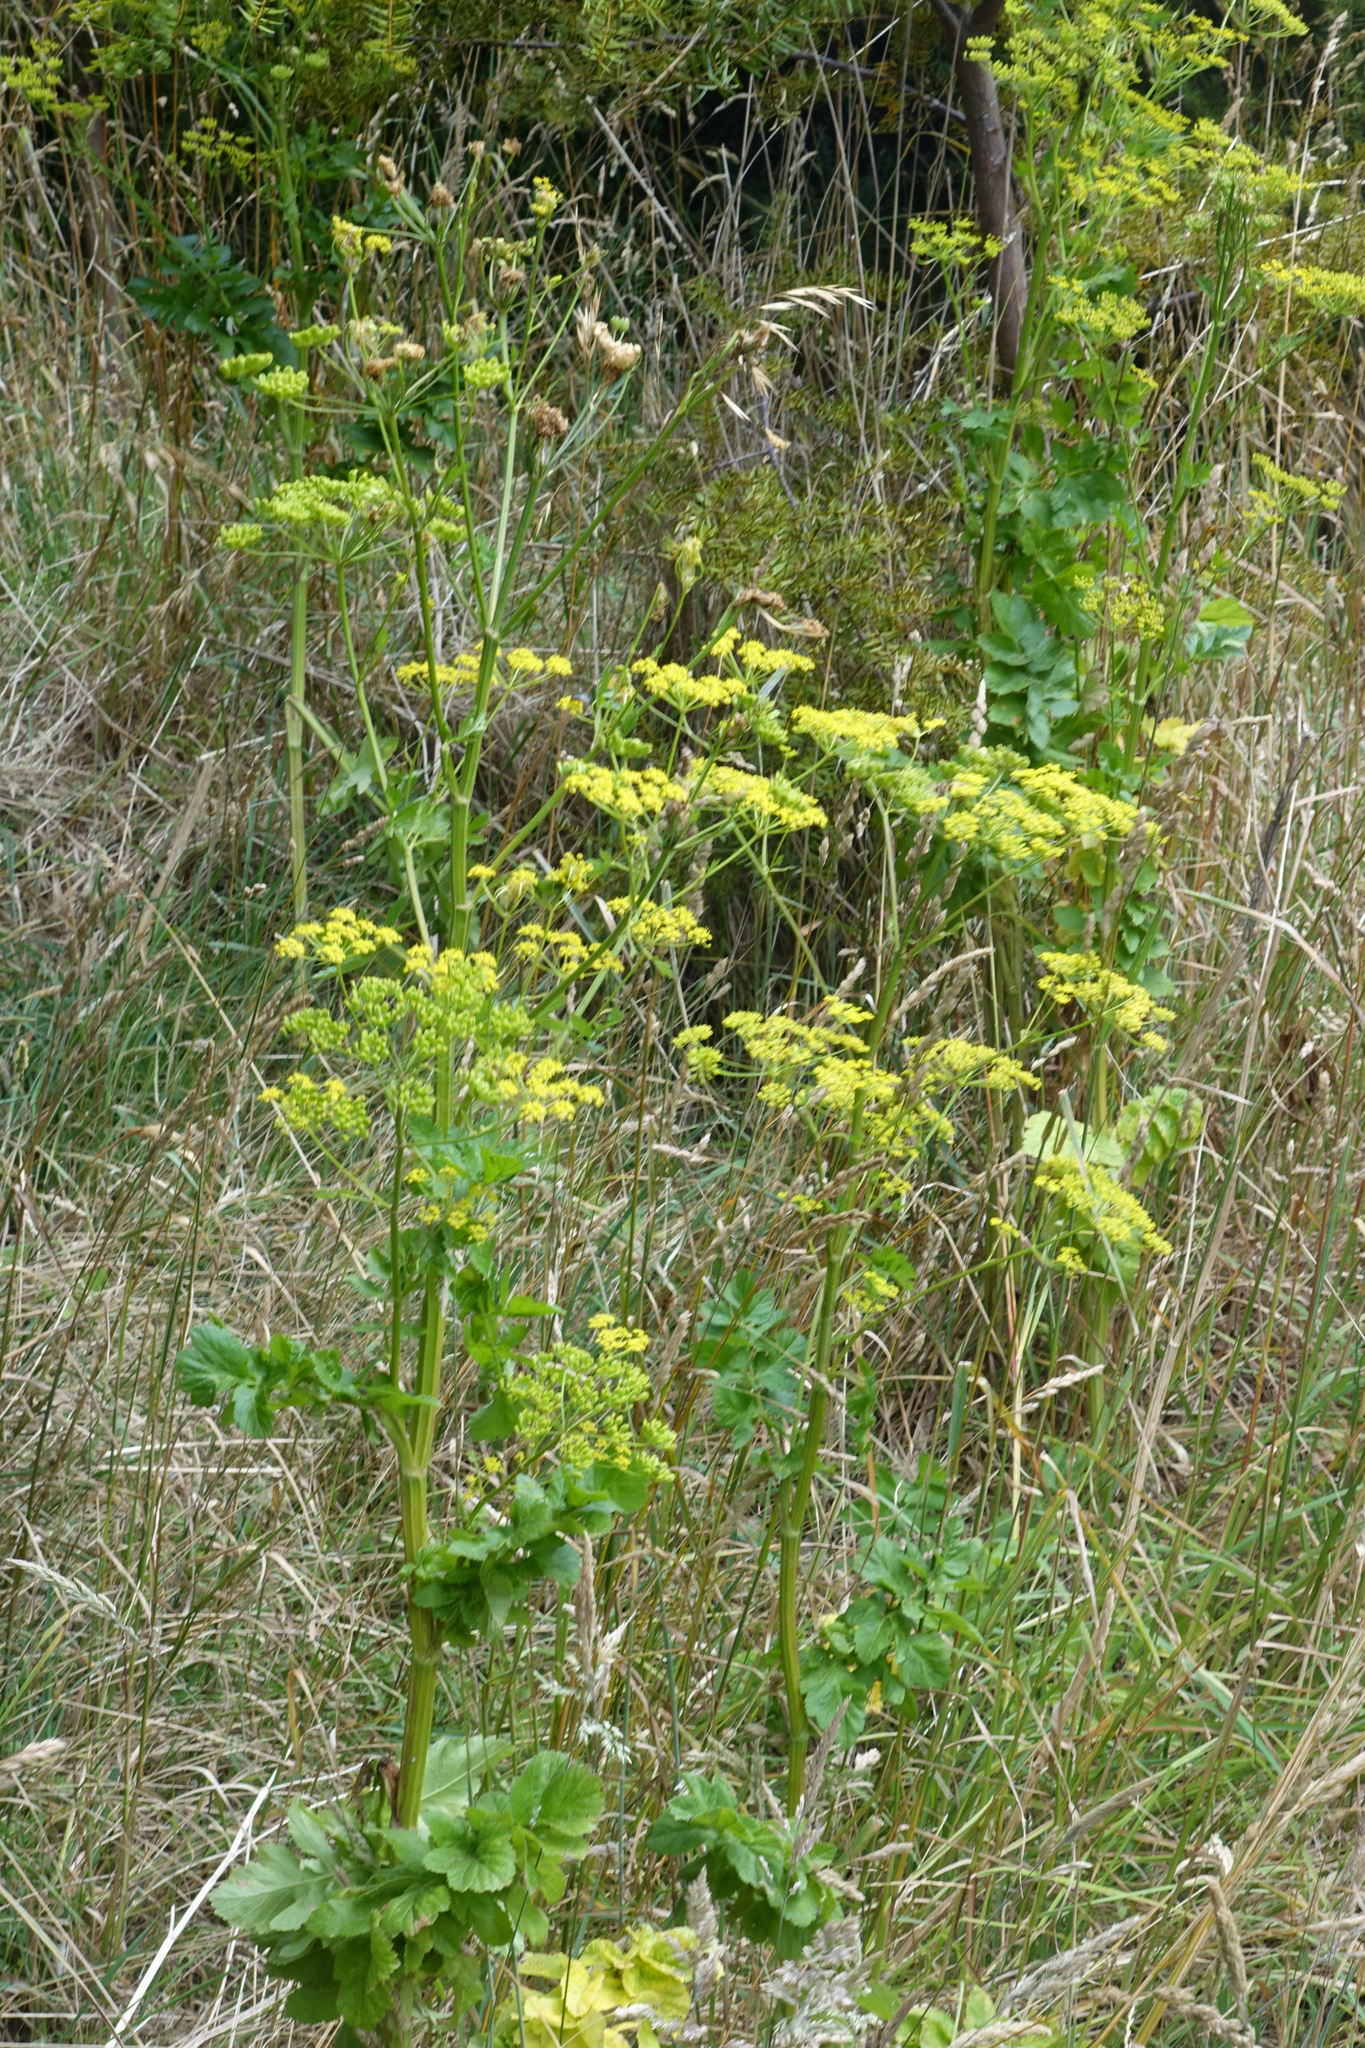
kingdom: Plantae
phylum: Tracheophyta
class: Magnoliopsida
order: Apiales
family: Apiaceae
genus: Pastinaca
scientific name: Pastinaca sativa
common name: Wild parsnip
